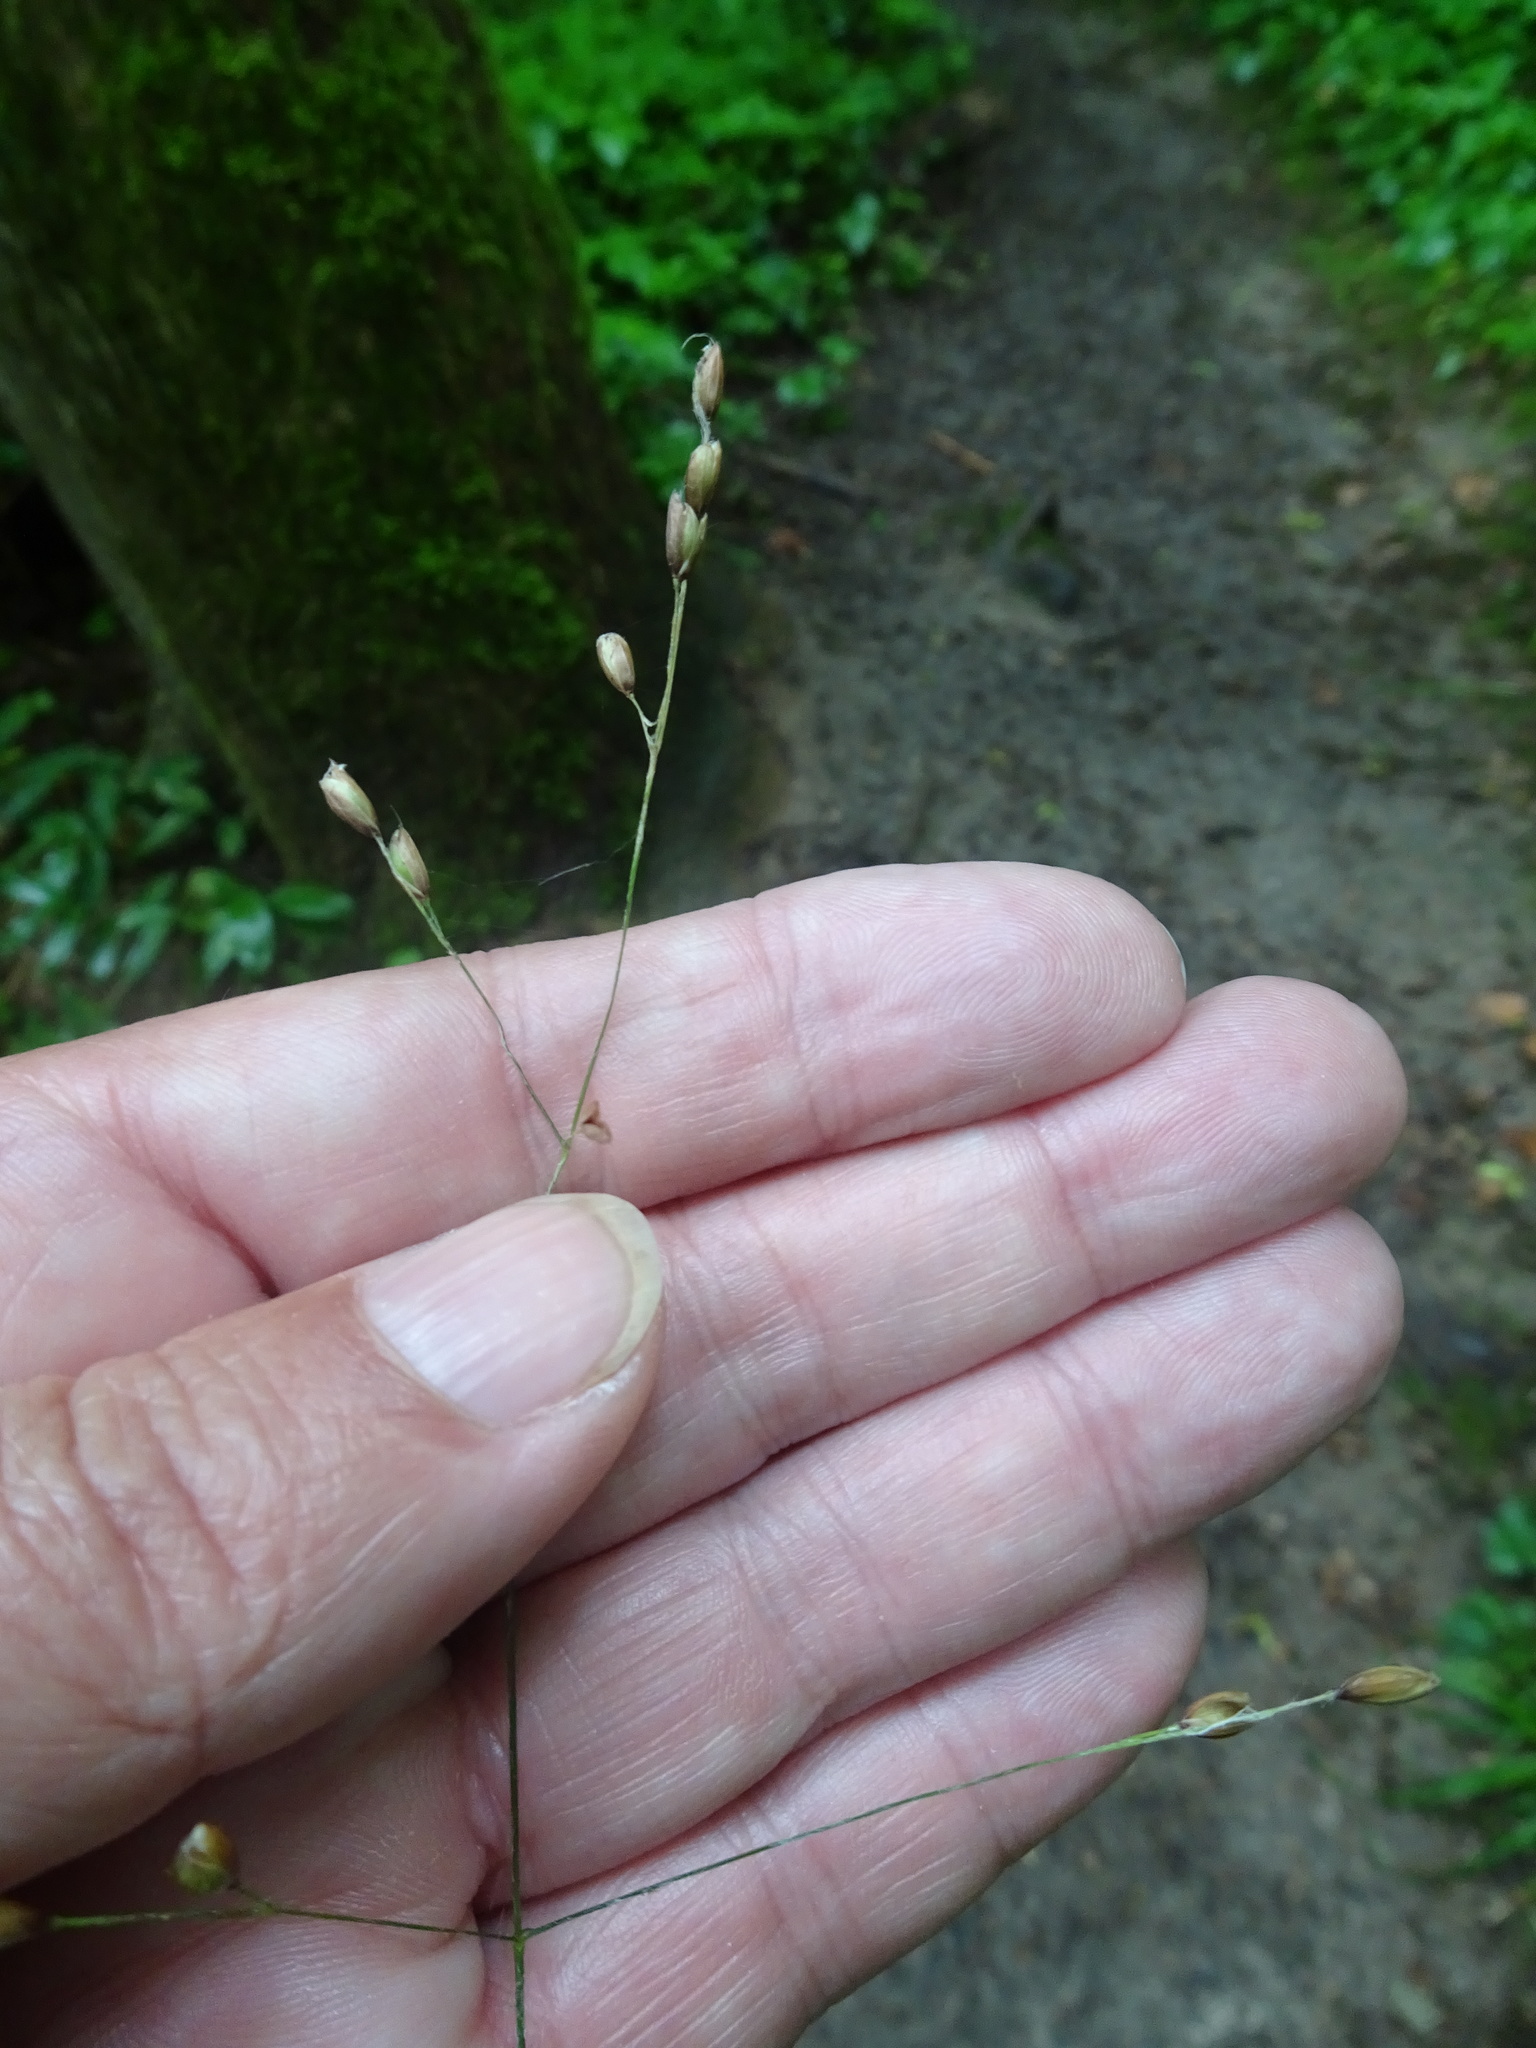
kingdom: Plantae
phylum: Tracheophyta
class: Liliopsida
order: Poales
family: Poaceae
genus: Melica
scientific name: Melica uniflora
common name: Wood melick
